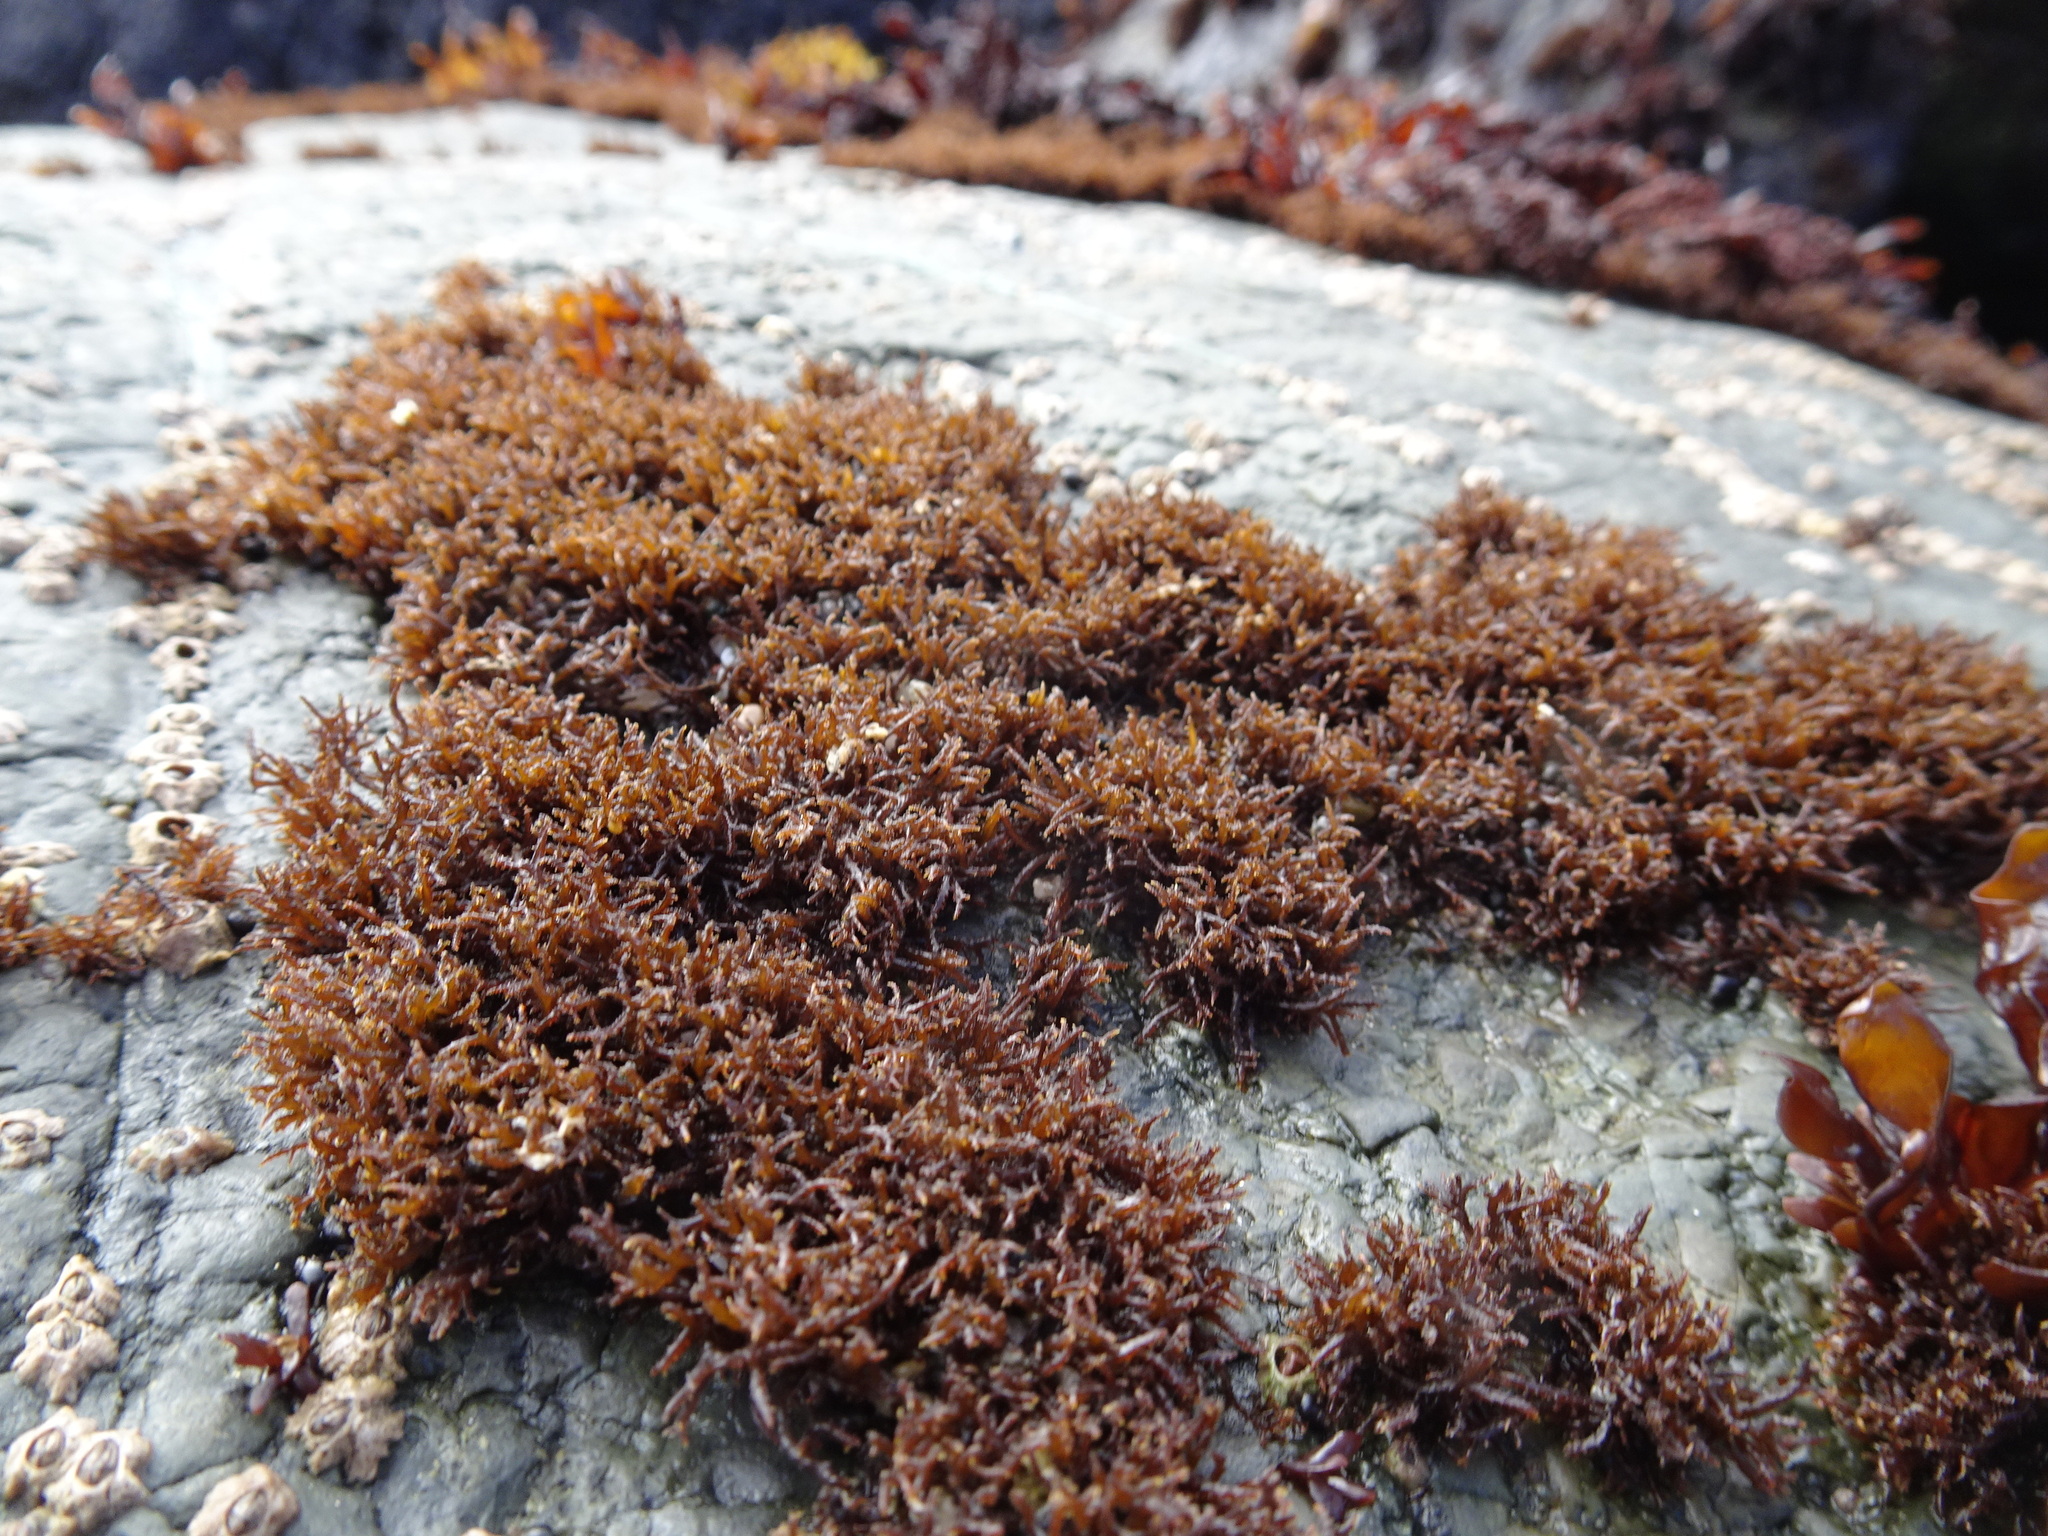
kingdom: Plantae
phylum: Rhodophyta
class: Florideophyceae
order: Gigartinales
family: Endocladiaceae
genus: Endocladia
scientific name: Endocladia muricata
